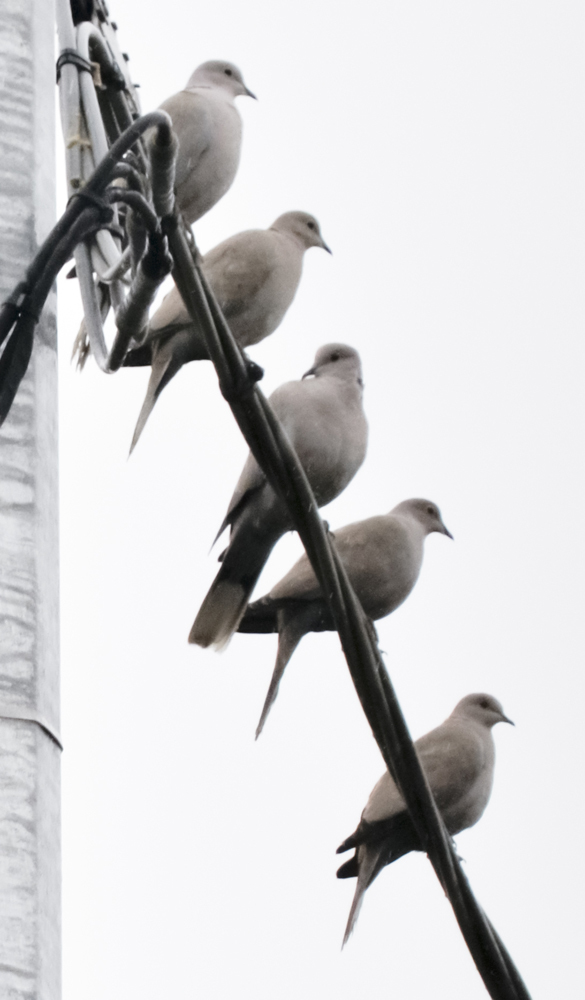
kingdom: Animalia
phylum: Chordata
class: Aves
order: Columbiformes
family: Columbidae
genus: Streptopelia
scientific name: Streptopelia decaocto
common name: Eurasian collared dove
